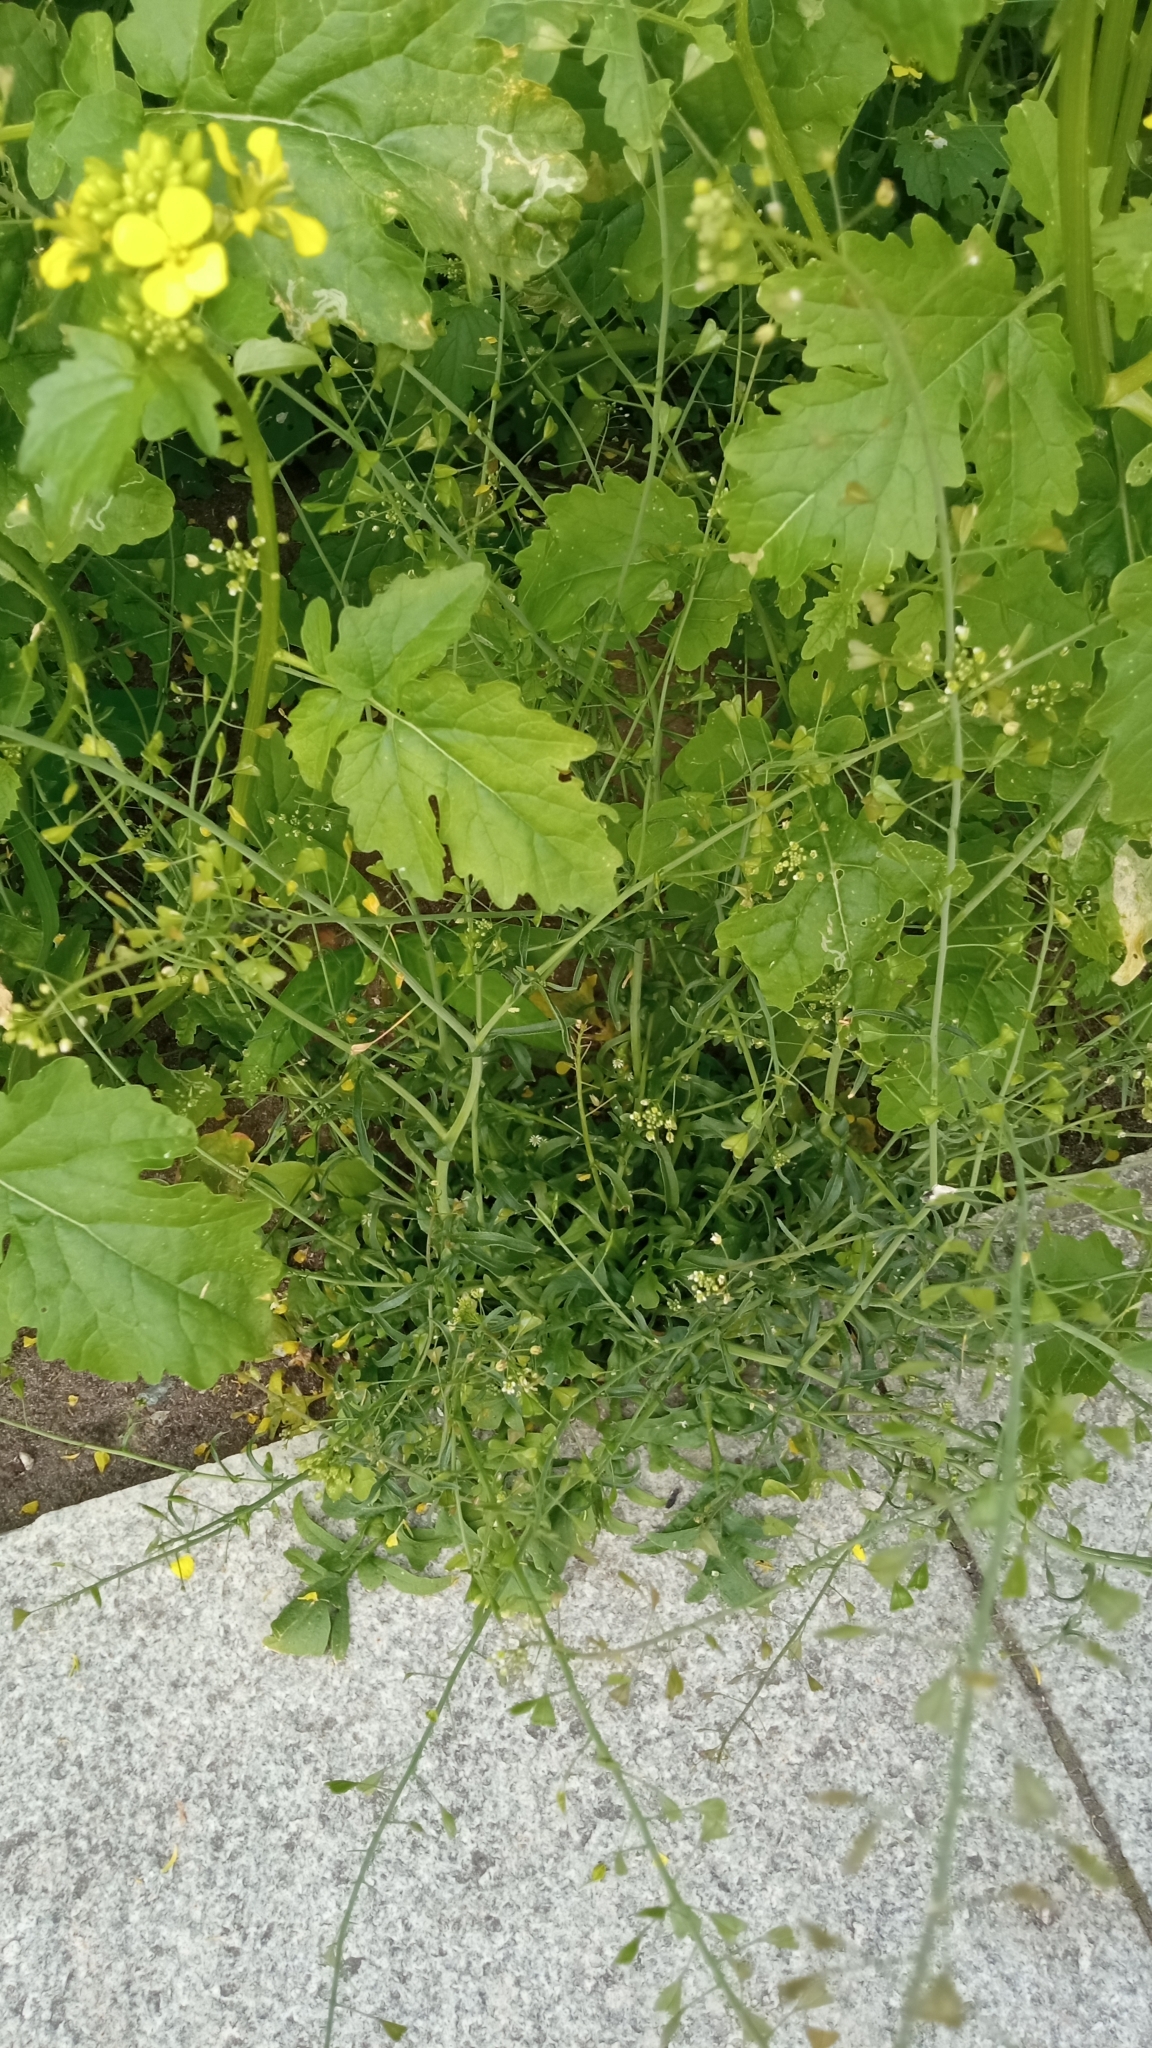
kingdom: Plantae
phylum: Tracheophyta
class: Magnoliopsida
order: Brassicales
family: Brassicaceae
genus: Capsella
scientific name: Capsella bursa-pastoris
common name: Shepherd's purse
